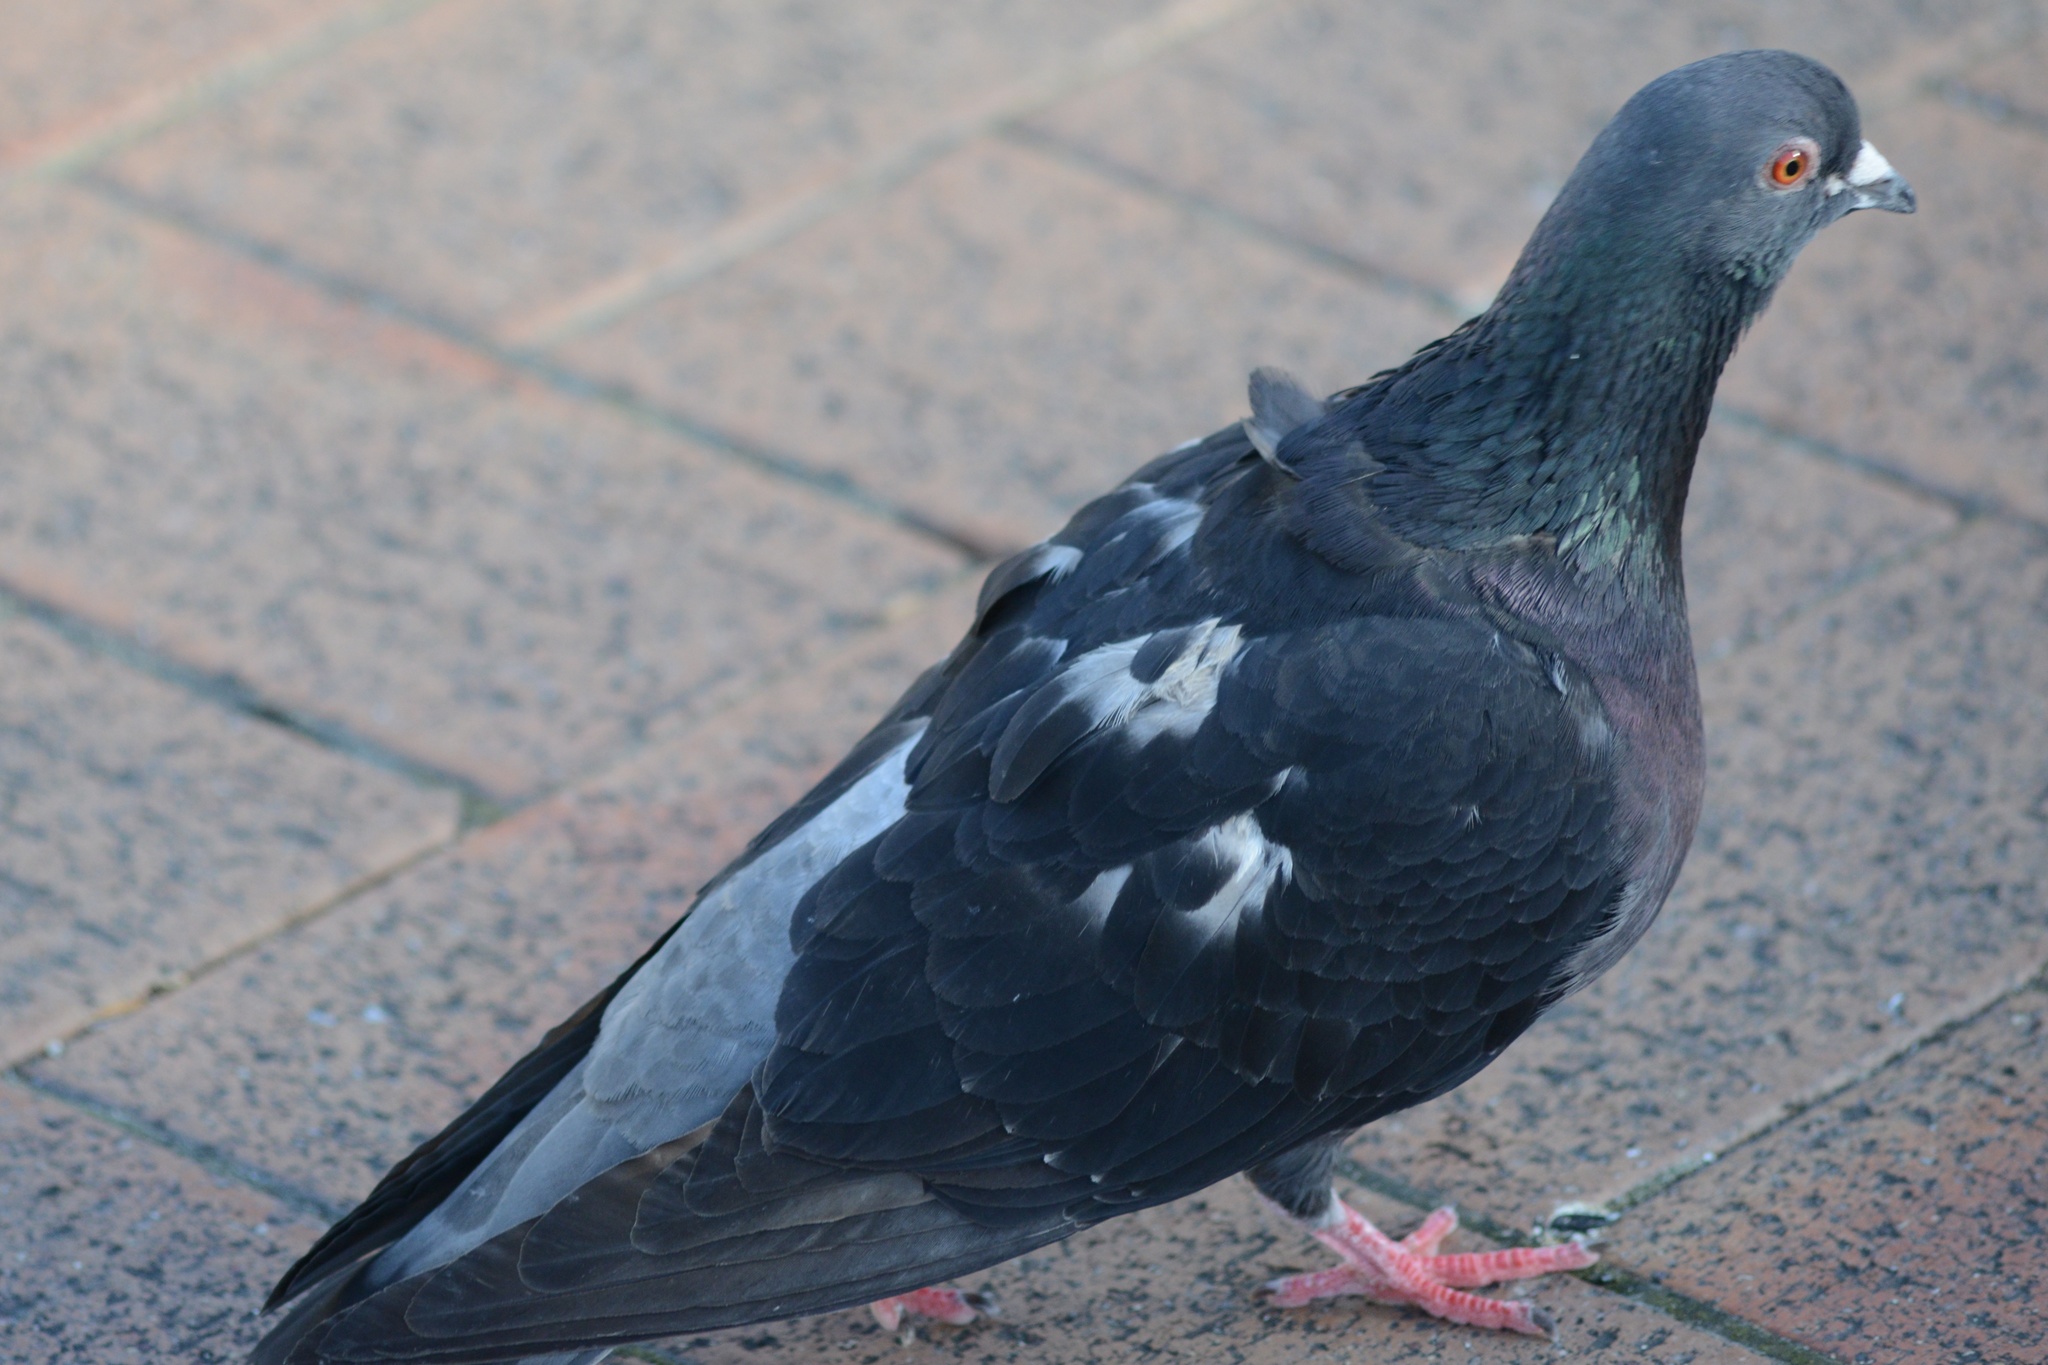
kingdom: Animalia
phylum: Chordata
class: Aves
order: Columbiformes
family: Columbidae
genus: Columba
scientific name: Columba livia
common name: Rock pigeon
